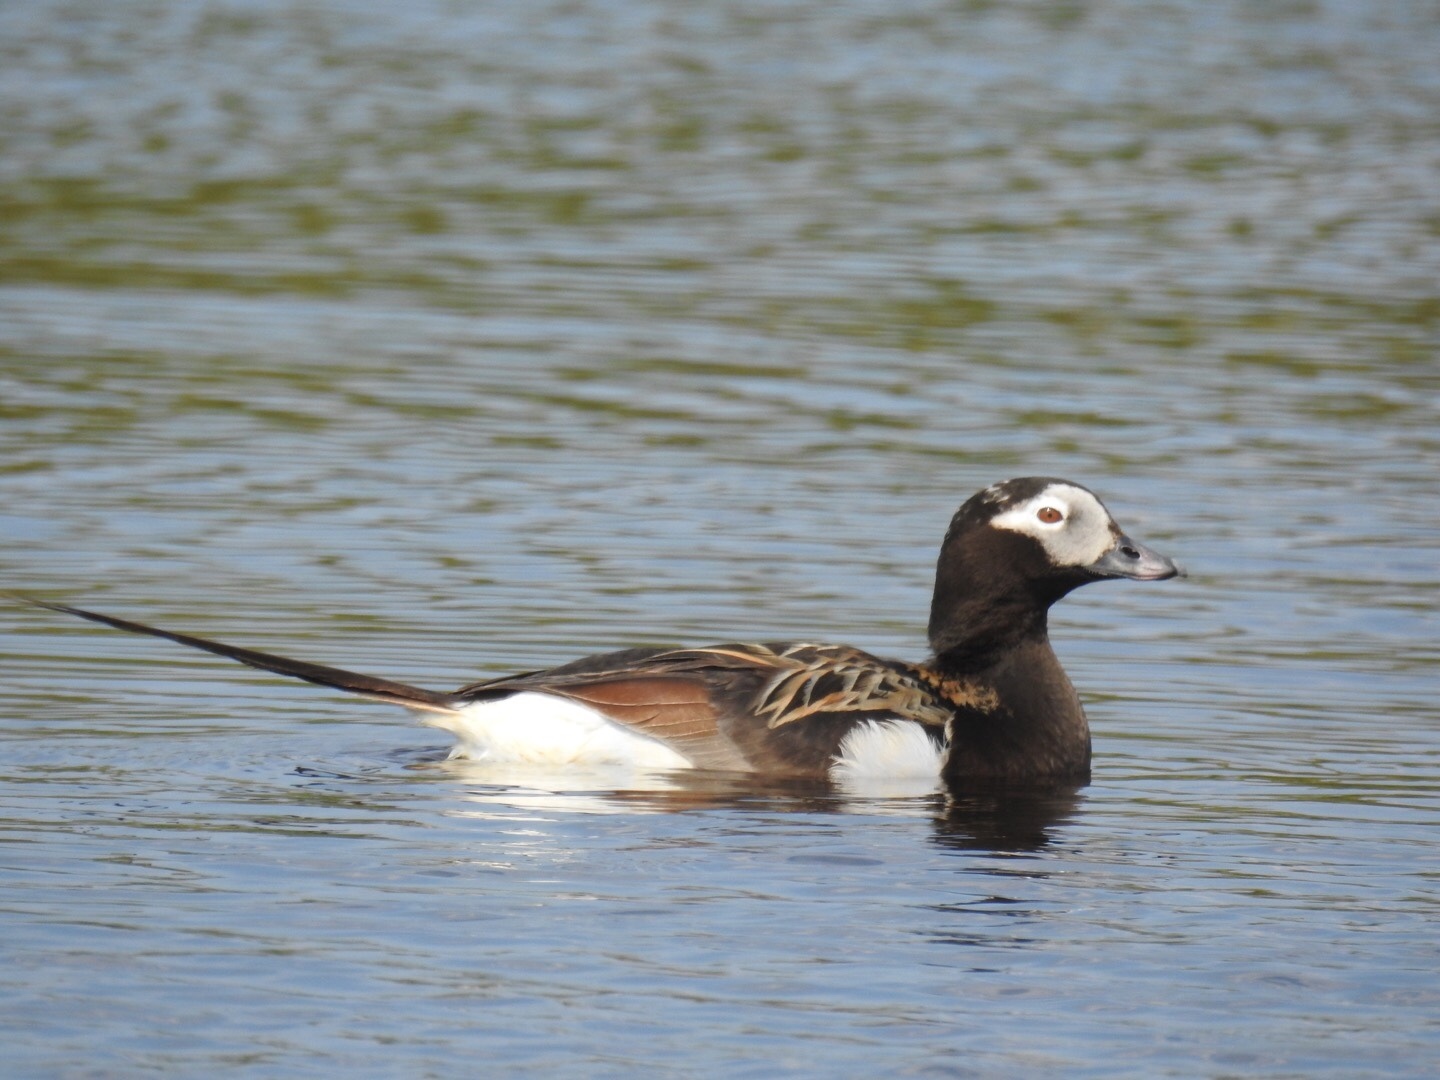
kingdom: Animalia
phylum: Chordata
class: Aves
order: Anseriformes
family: Anatidae
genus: Clangula
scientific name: Clangula hyemalis
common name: Long-tailed duck
